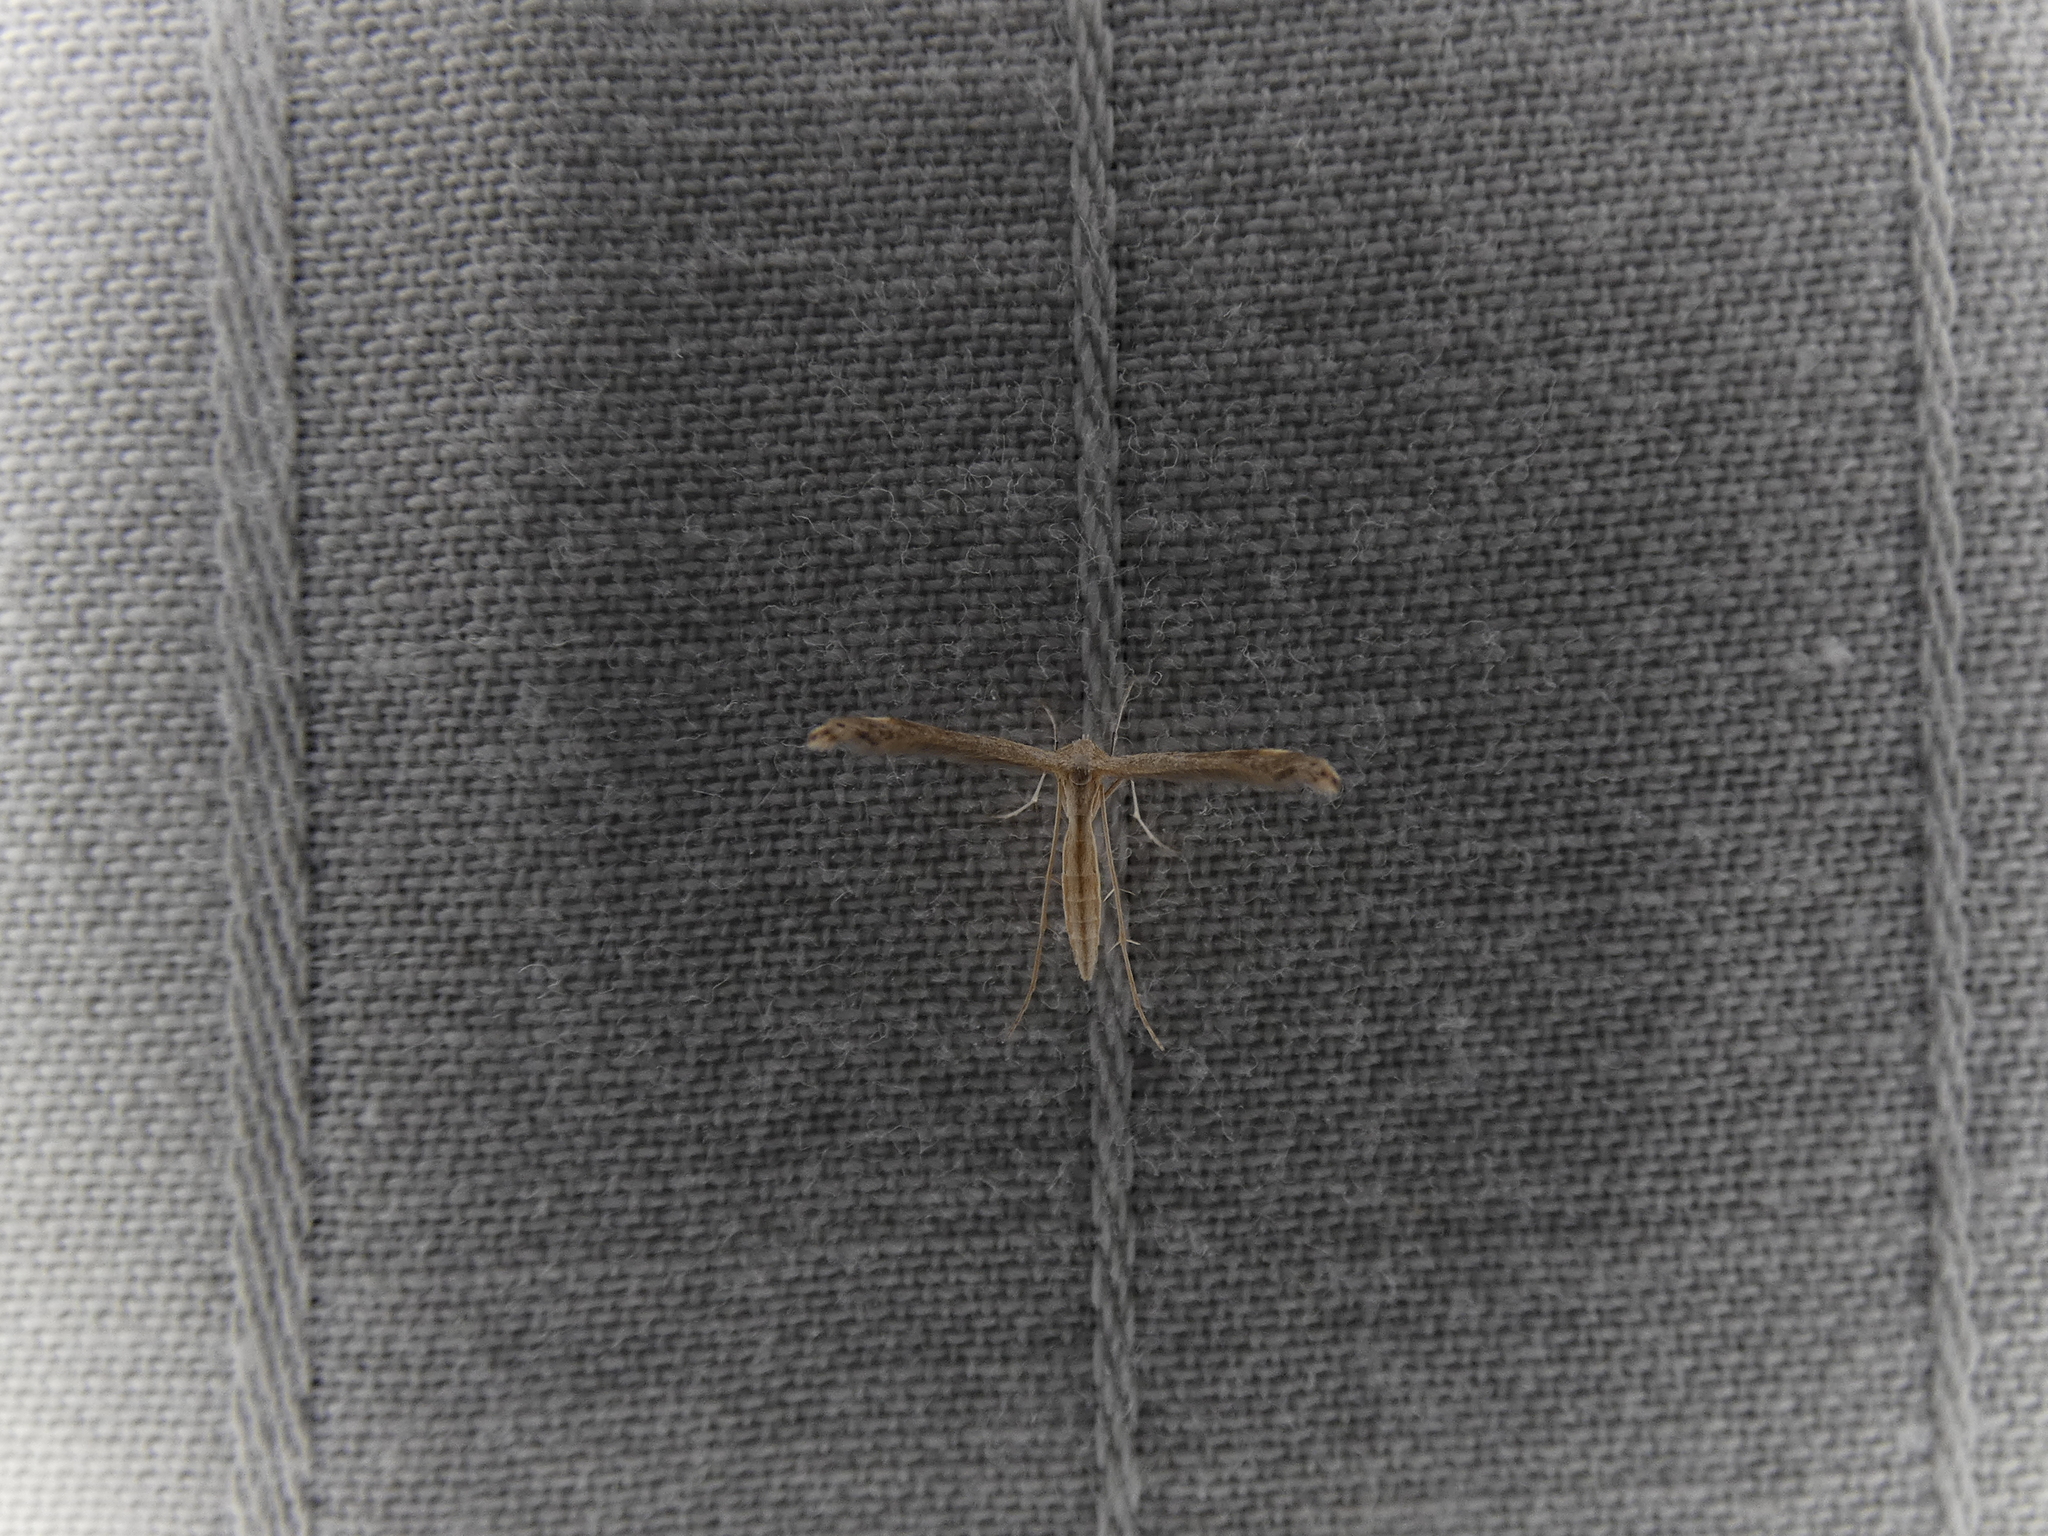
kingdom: Animalia
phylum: Arthropoda
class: Insecta
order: Lepidoptera
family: Pterophoridae
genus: Lioptilodes
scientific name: Lioptilodes albistriolatus
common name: Moth
